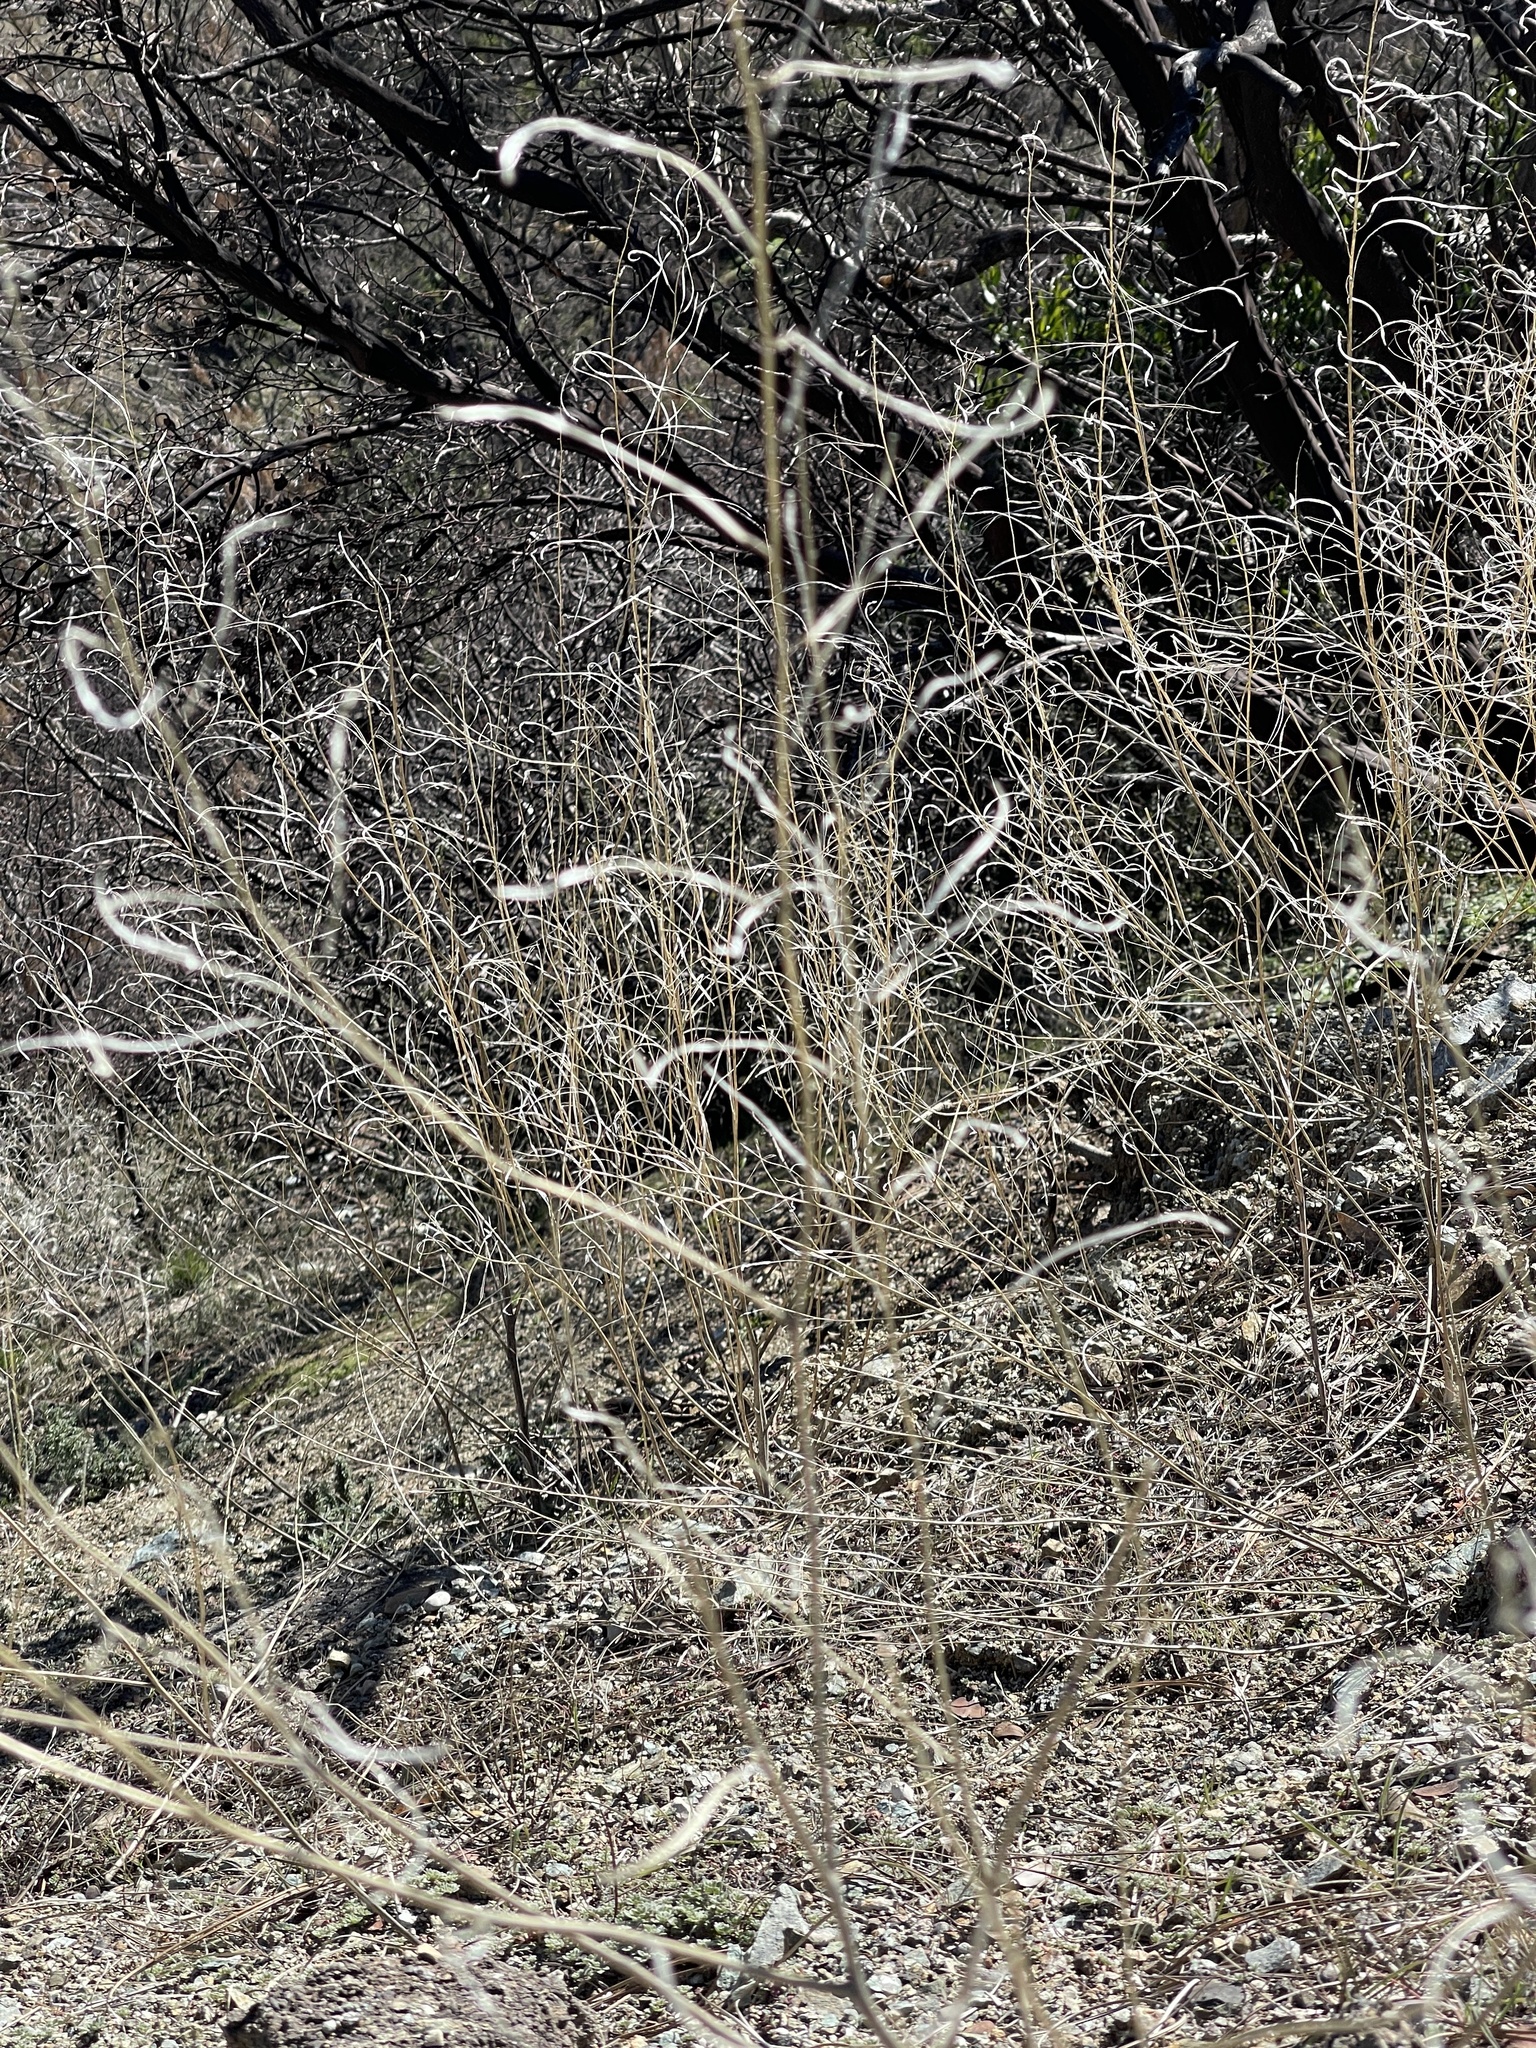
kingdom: Plantae
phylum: Tracheophyta
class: Magnoliopsida
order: Brassicales
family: Brassicaceae
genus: Streptanthus
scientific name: Streptanthus glandulosus
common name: Jewel-flower
